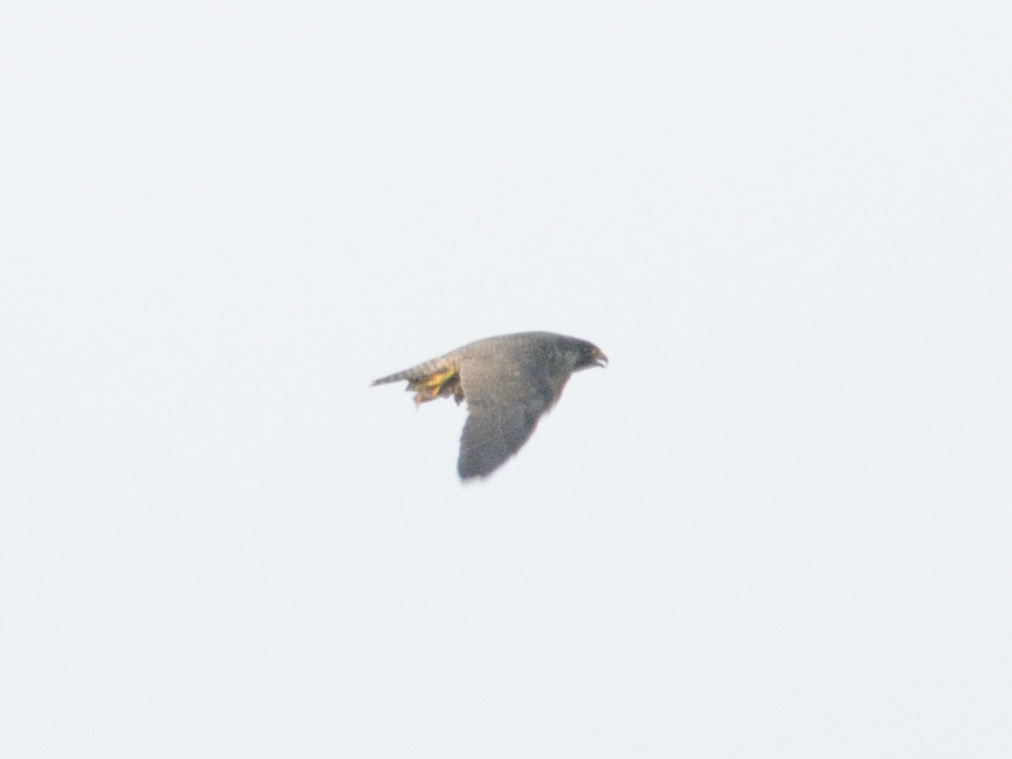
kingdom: Animalia
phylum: Chordata
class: Aves
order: Falconiformes
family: Falconidae
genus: Falco
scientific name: Falco peregrinus
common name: Peregrine falcon
